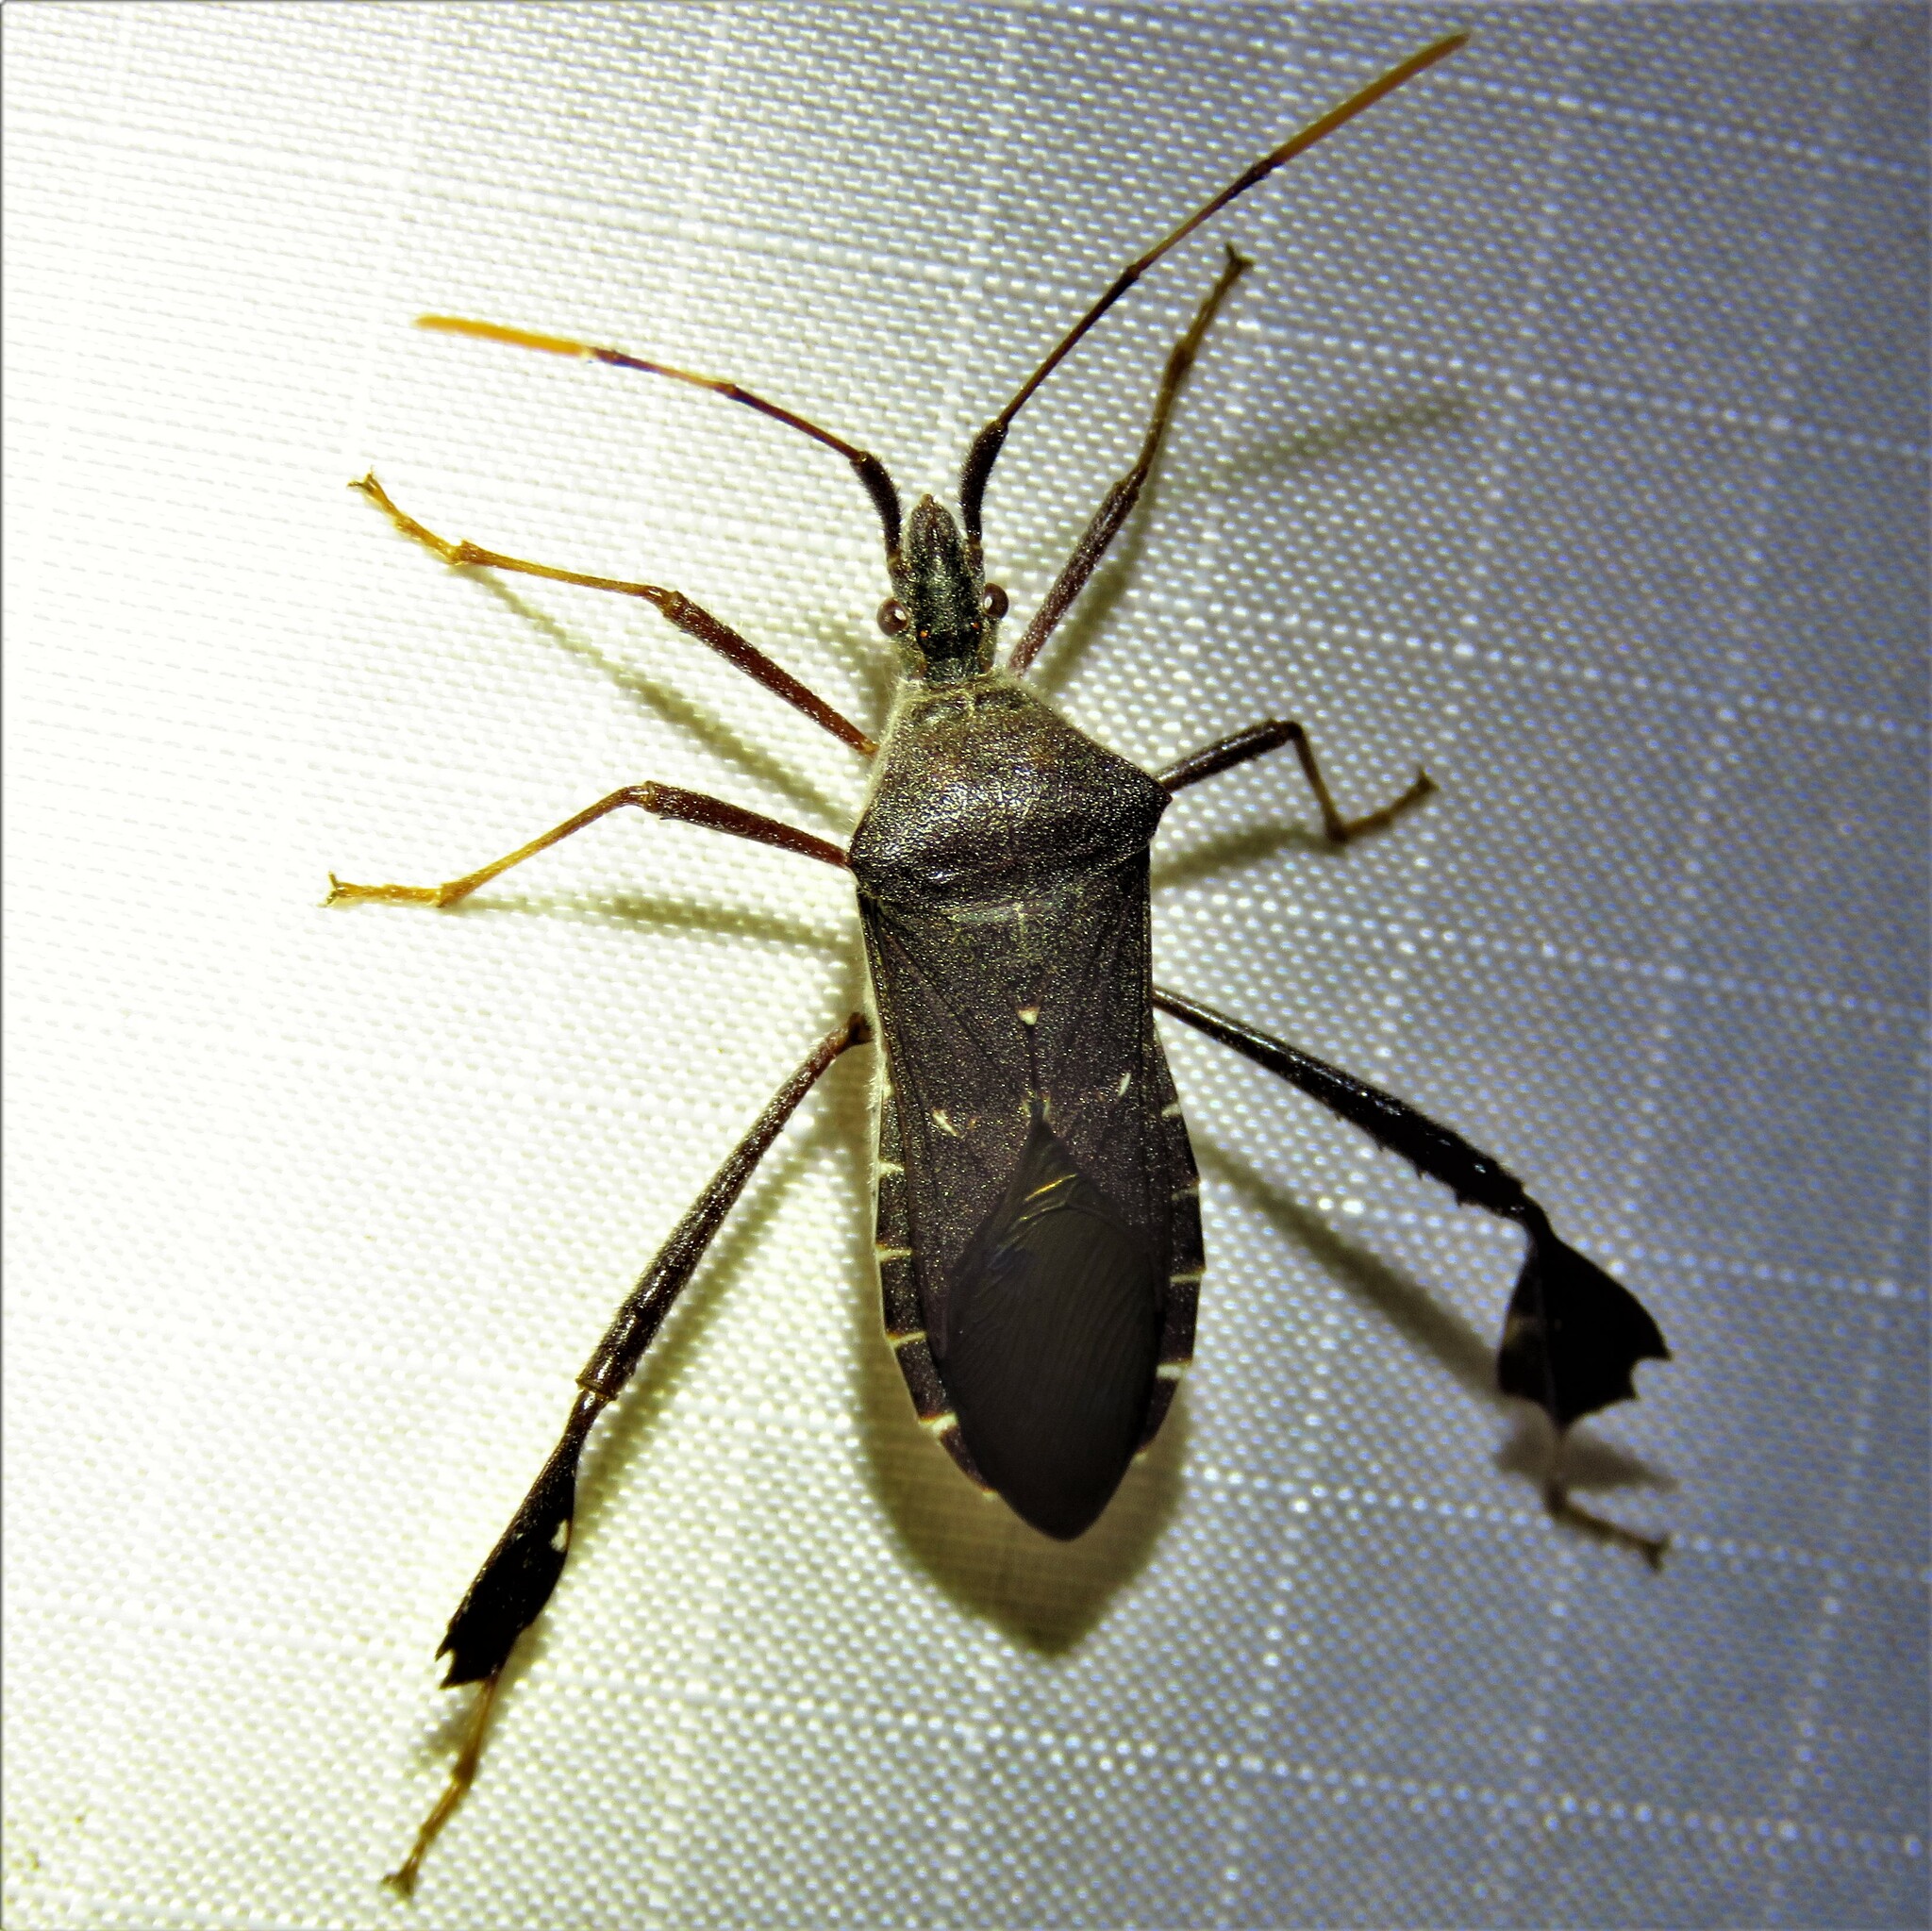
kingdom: Animalia
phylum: Arthropoda
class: Insecta
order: Hemiptera
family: Coreidae
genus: Leptoglossus
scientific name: Leptoglossus oppositus
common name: Northern leaf-footed bug
